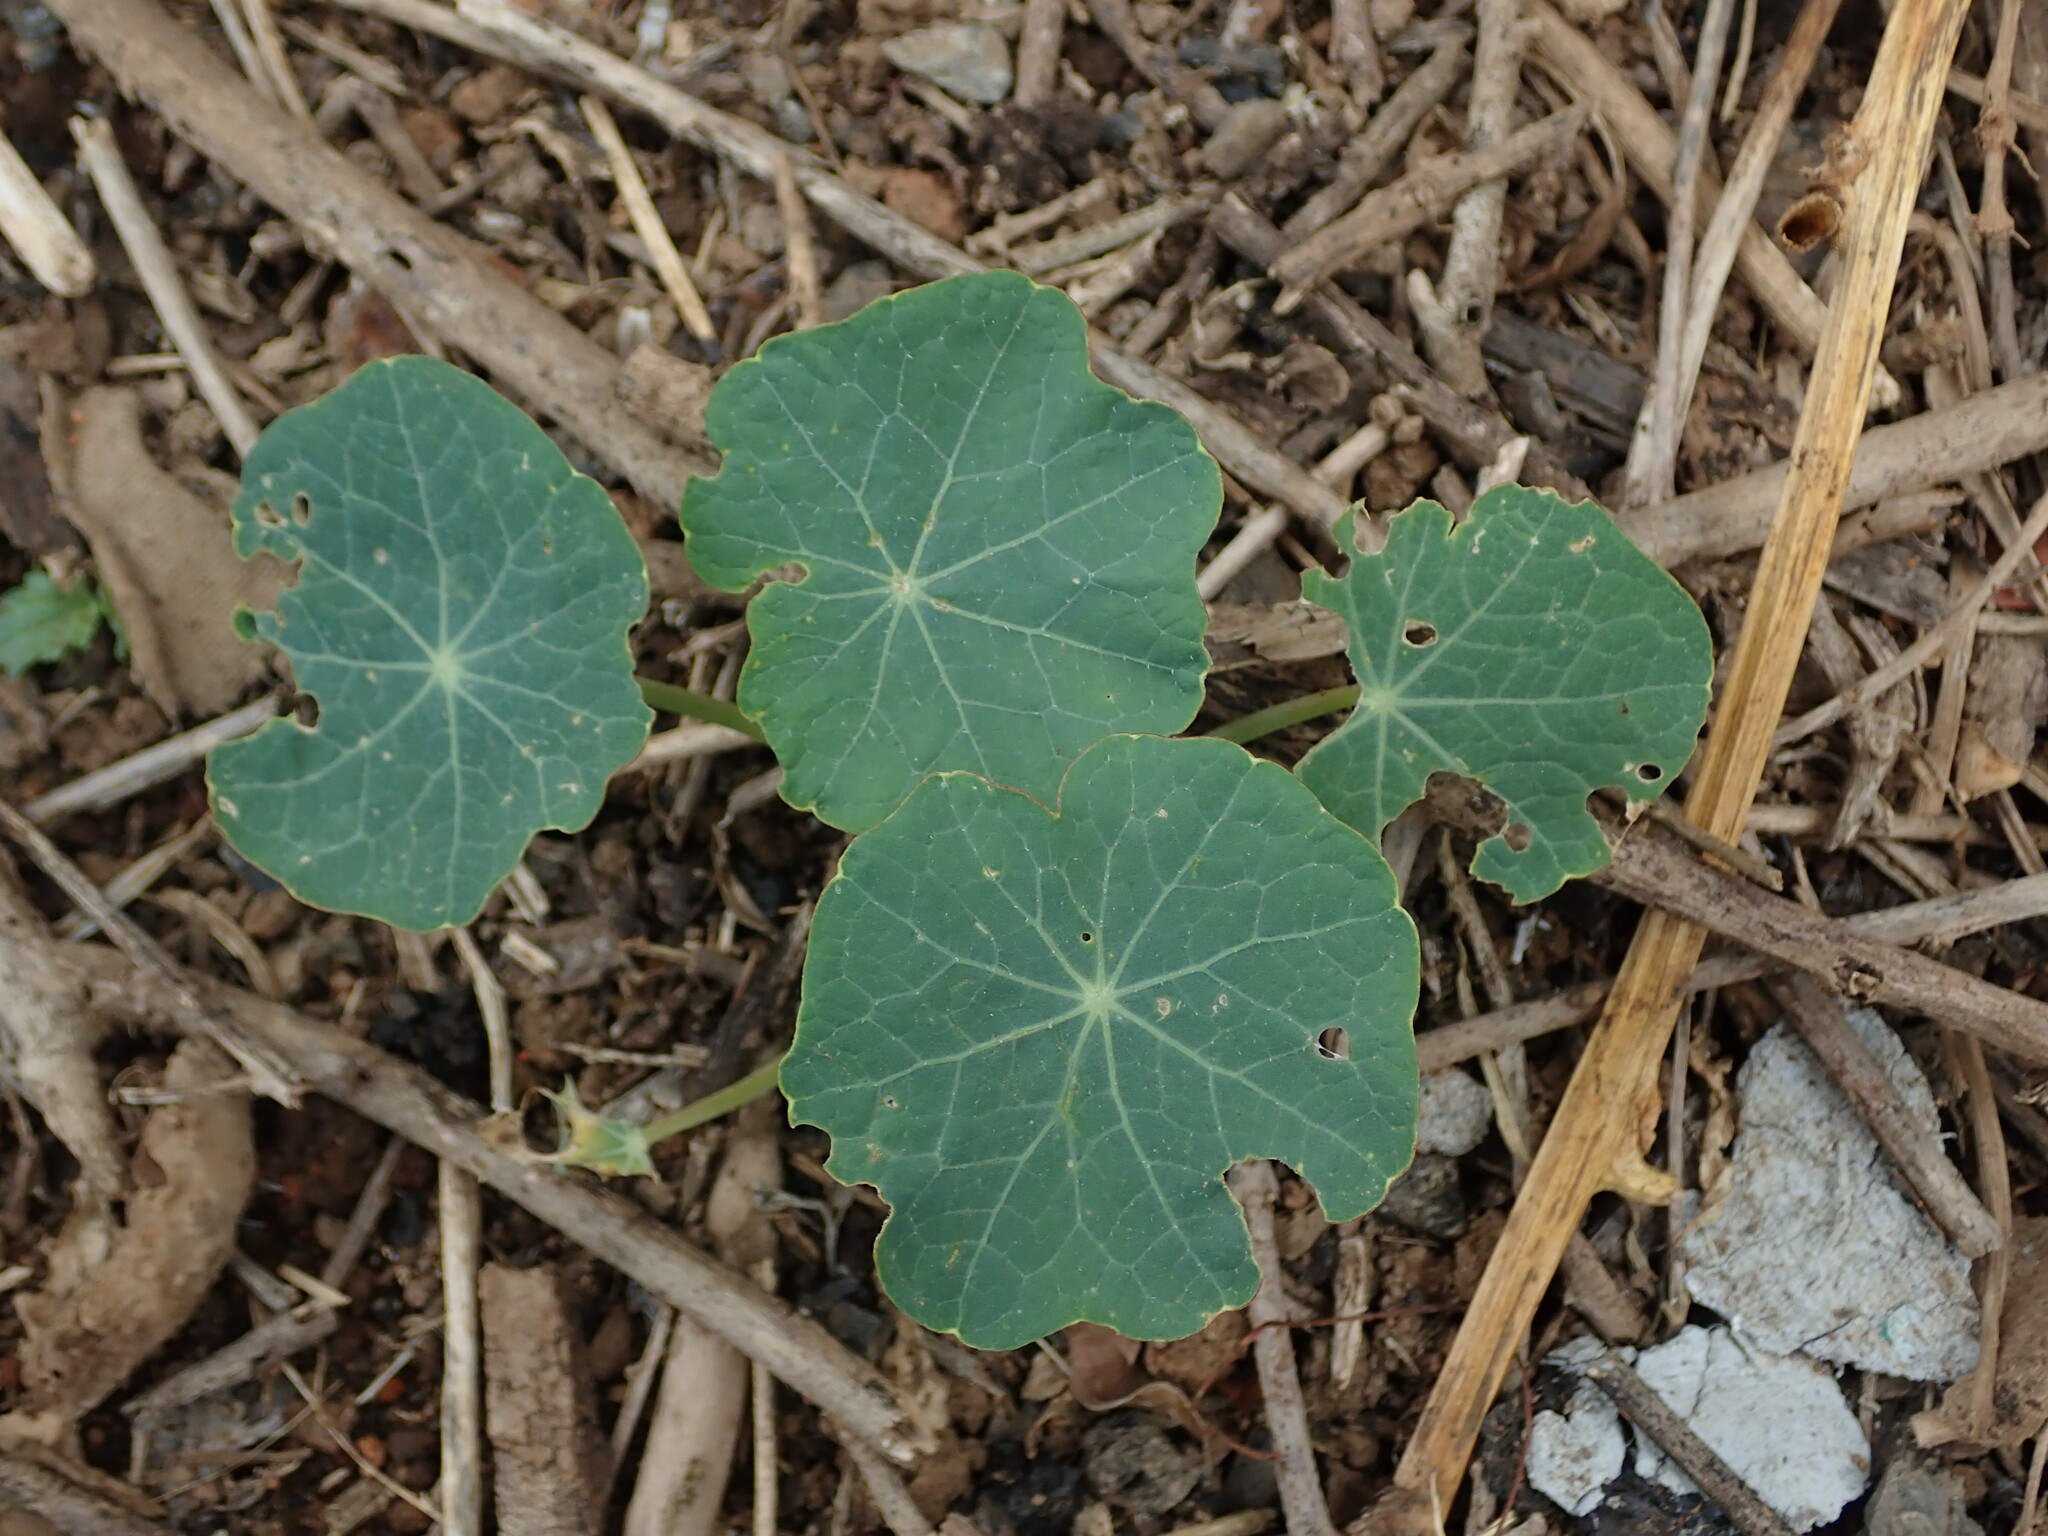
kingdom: Plantae
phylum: Tracheophyta
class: Magnoliopsida
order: Brassicales
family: Tropaeolaceae
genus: Tropaeolum
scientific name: Tropaeolum majus
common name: Nasturtium
